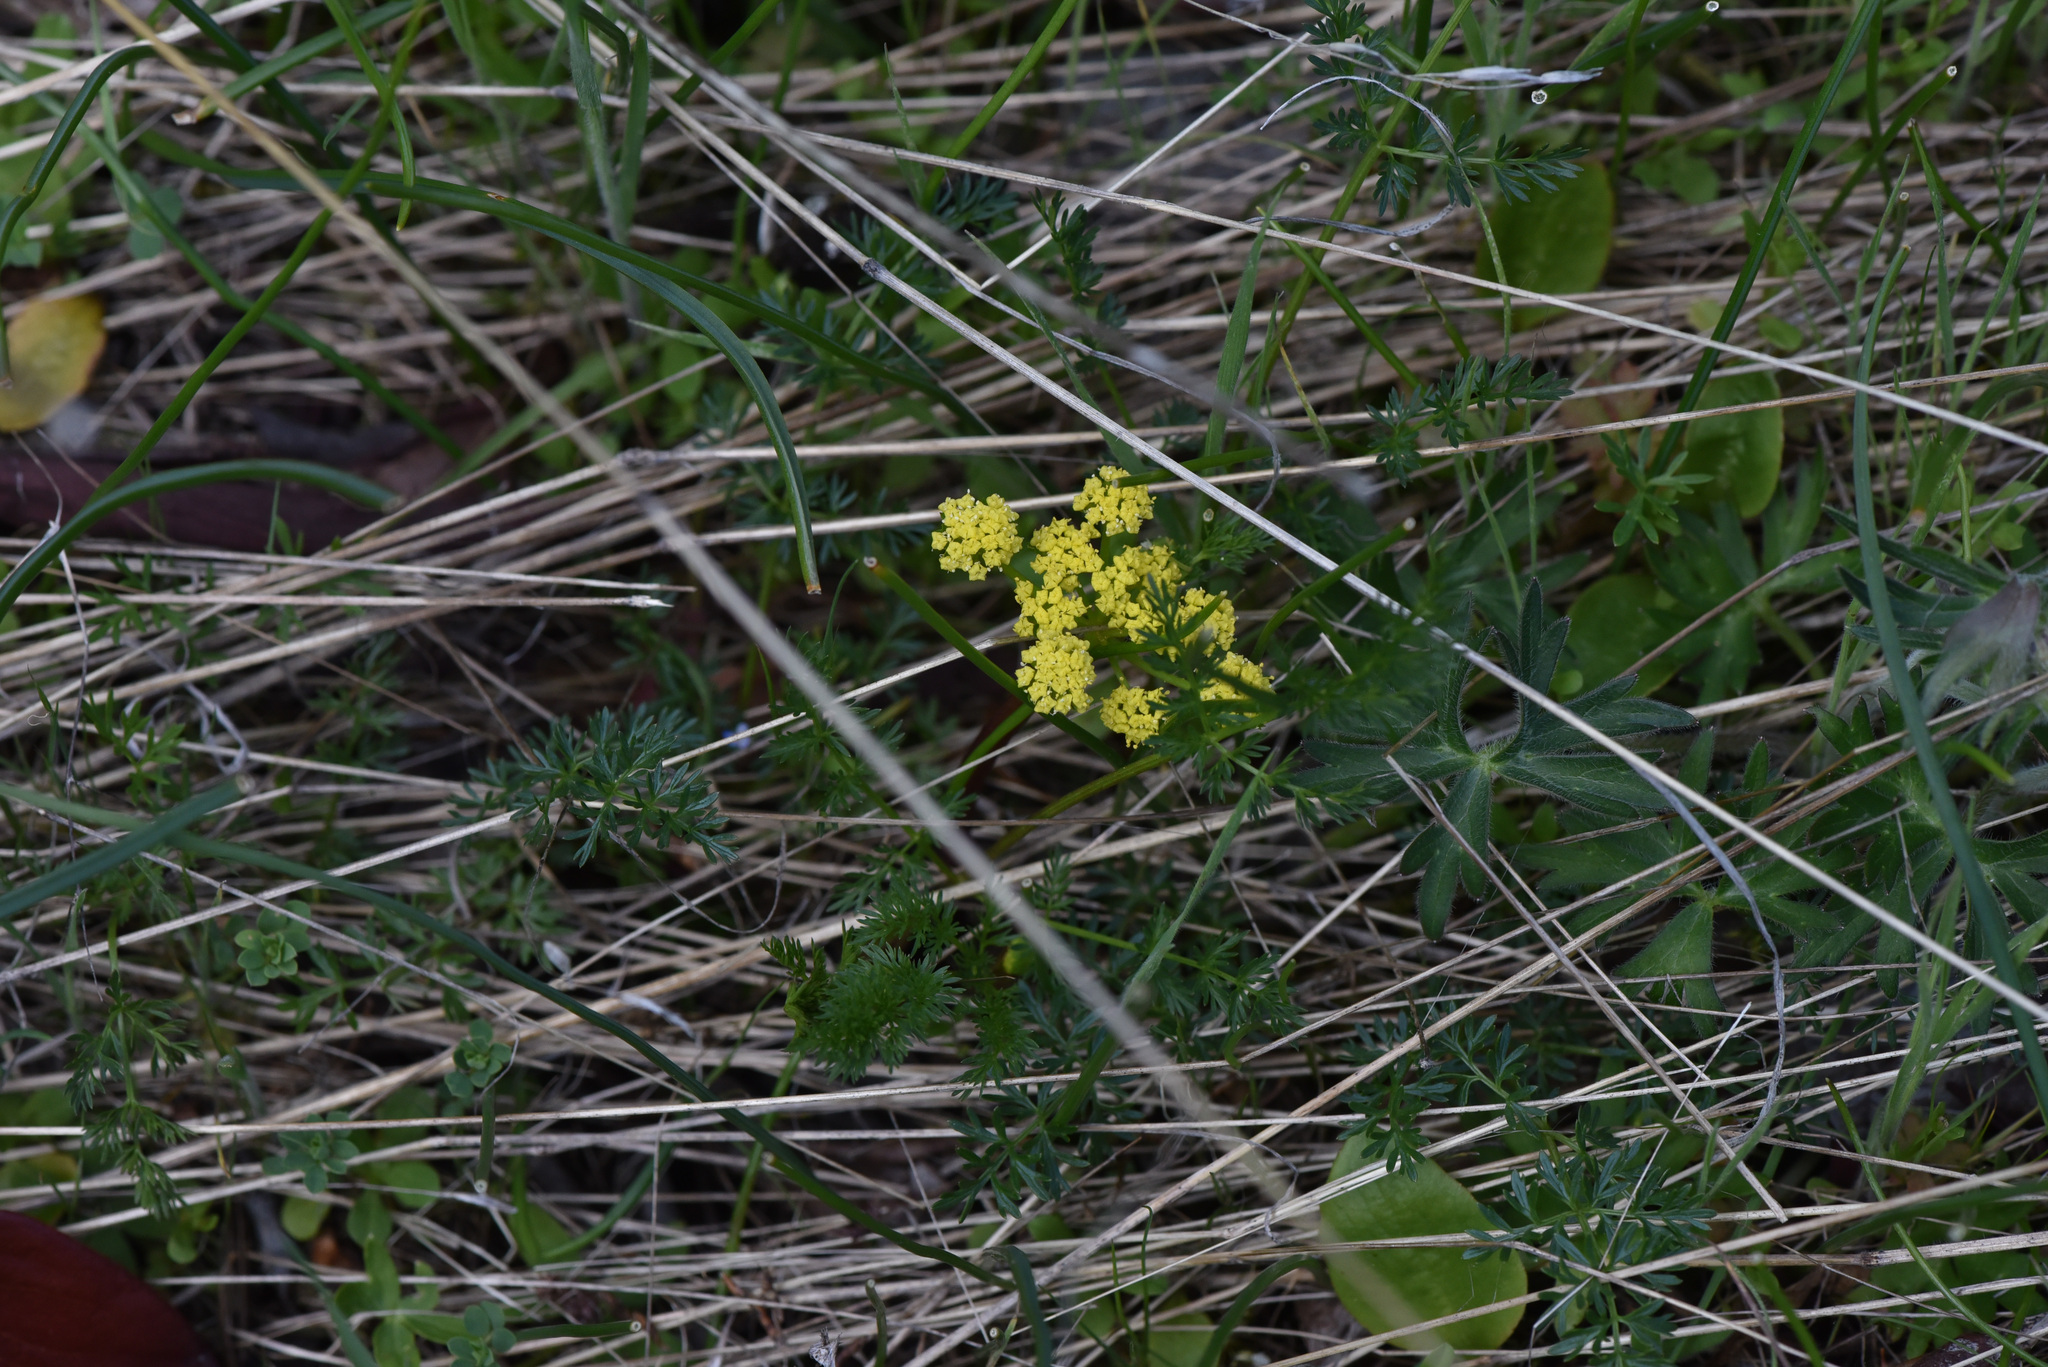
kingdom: Plantae
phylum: Tracheophyta
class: Magnoliopsida
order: Apiales
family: Apiaceae
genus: Lomatium
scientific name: Lomatium utriculatum
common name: Fine-leaf desert-parsley
